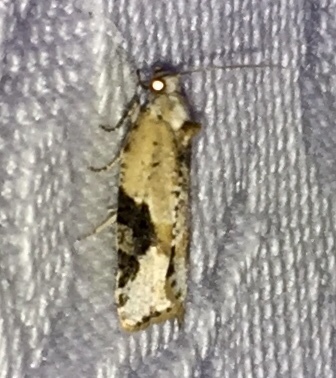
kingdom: Animalia
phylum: Arthropoda
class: Insecta
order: Lepidoptera
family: Tortricidae
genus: Argyrotaenia
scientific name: Argyrotaenia mariana
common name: Gray-banded leafroller moth
